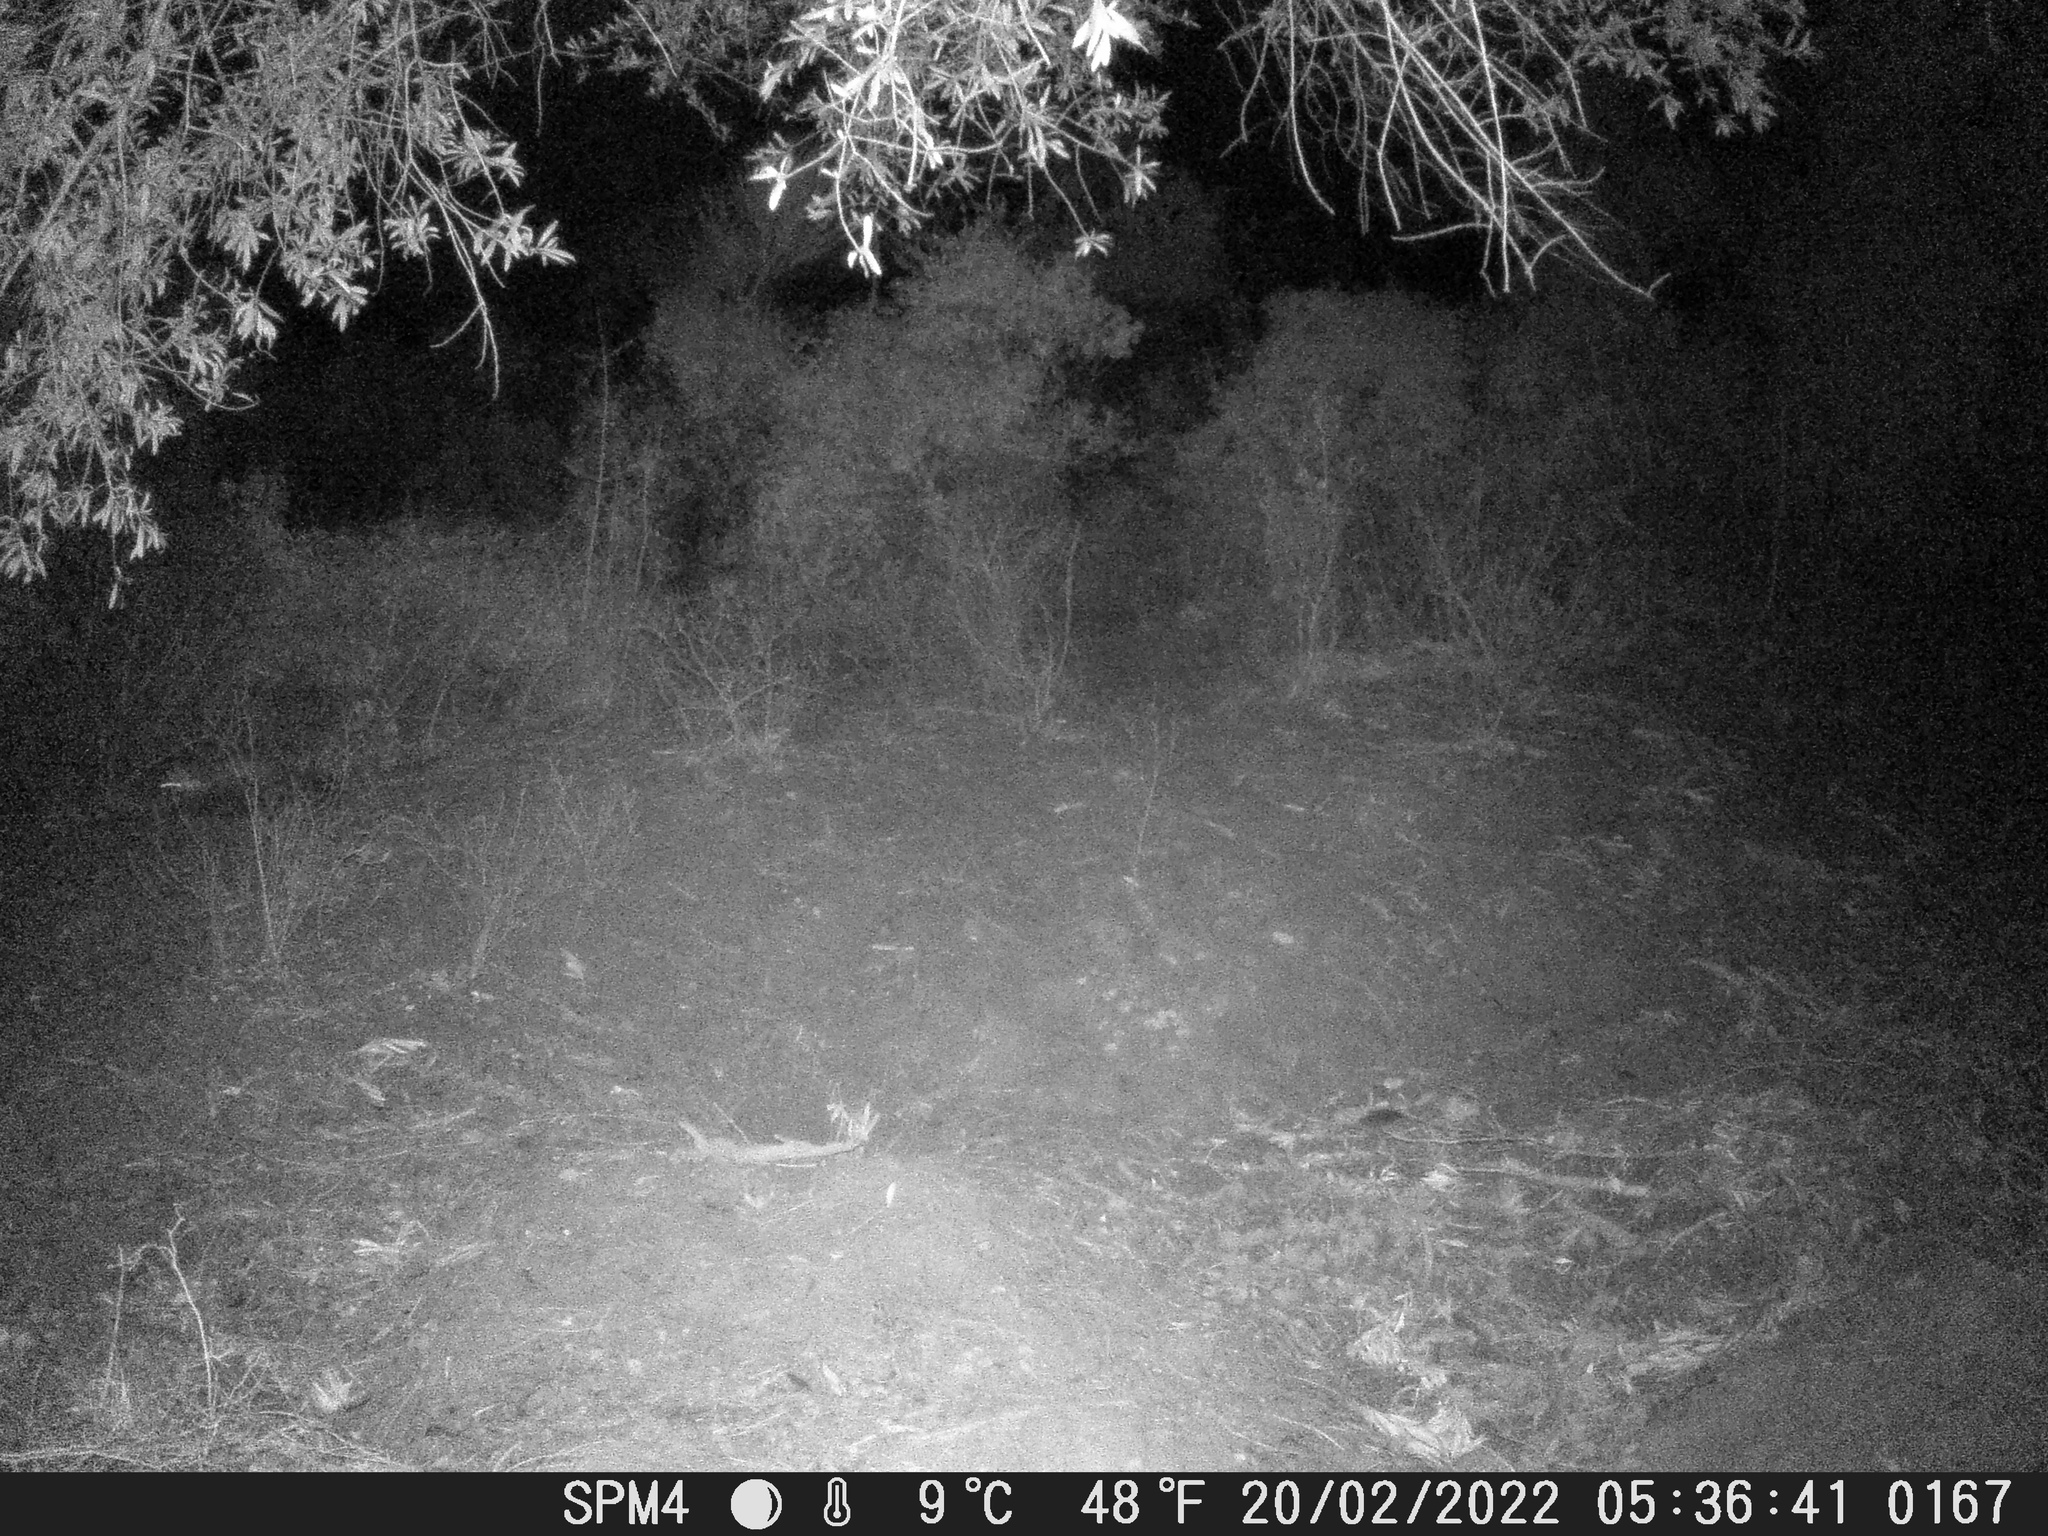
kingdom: Animalia
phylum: Chordata
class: Mammalia
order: Carnivora
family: Mustelidae
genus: Martes
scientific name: Martes foina
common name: Beech marten
